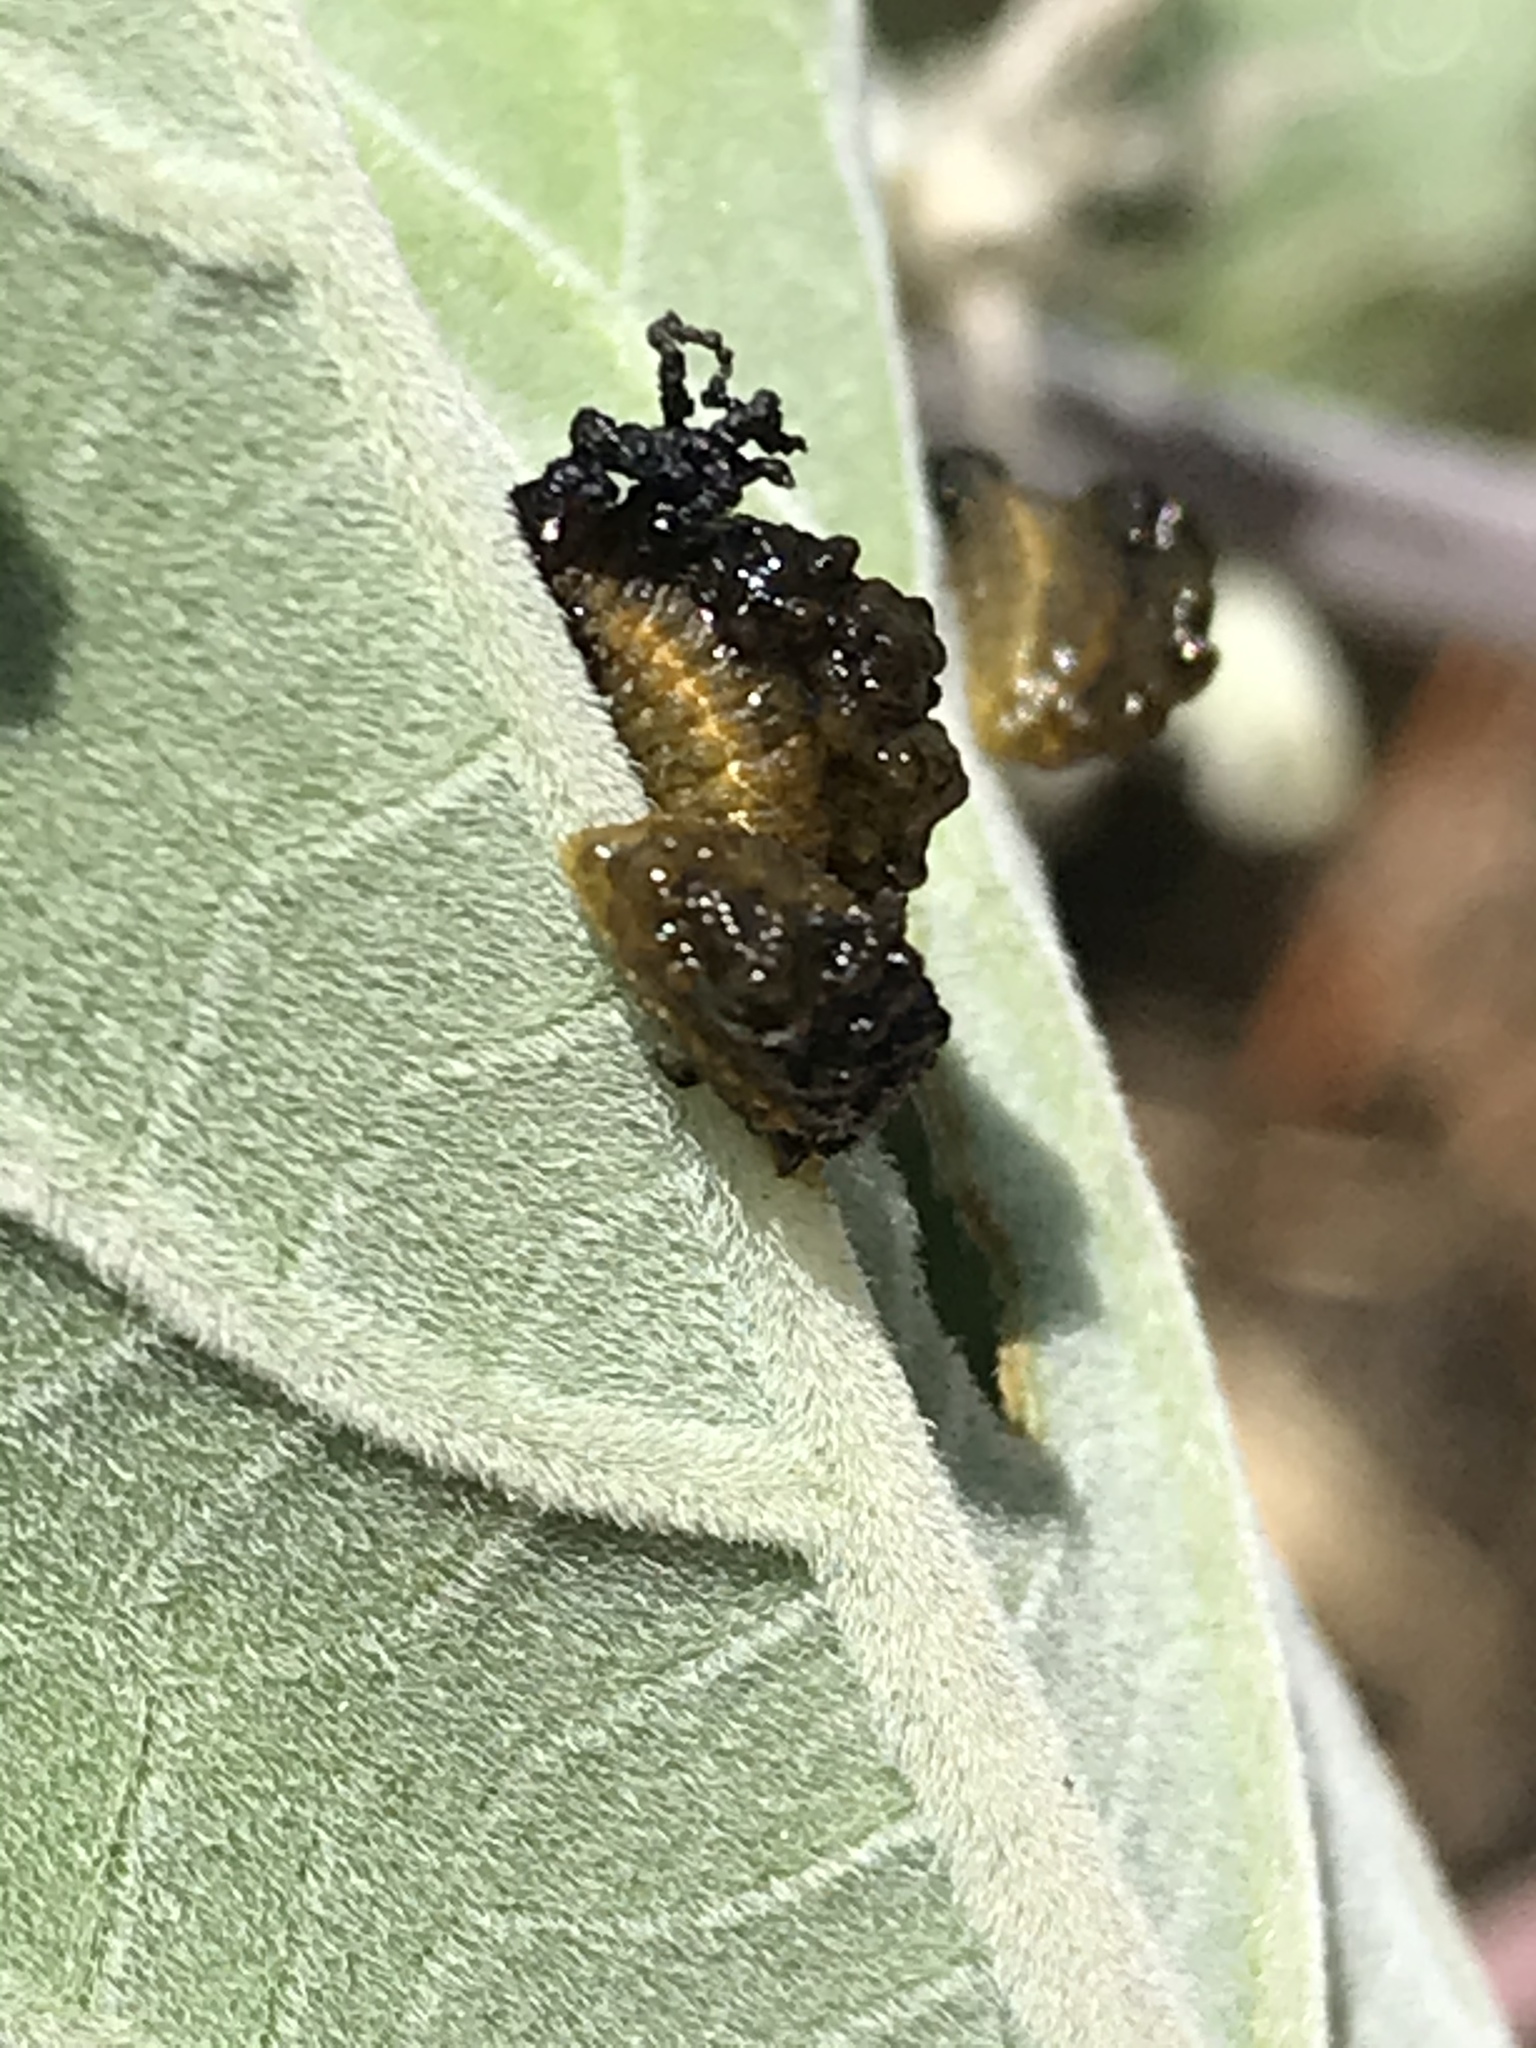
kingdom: Animalia
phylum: Arthropoda
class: Insecta
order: Coleoptera
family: Chrysomelidae
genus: Lema
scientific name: Lema daturaphila
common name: Leaf beetle
